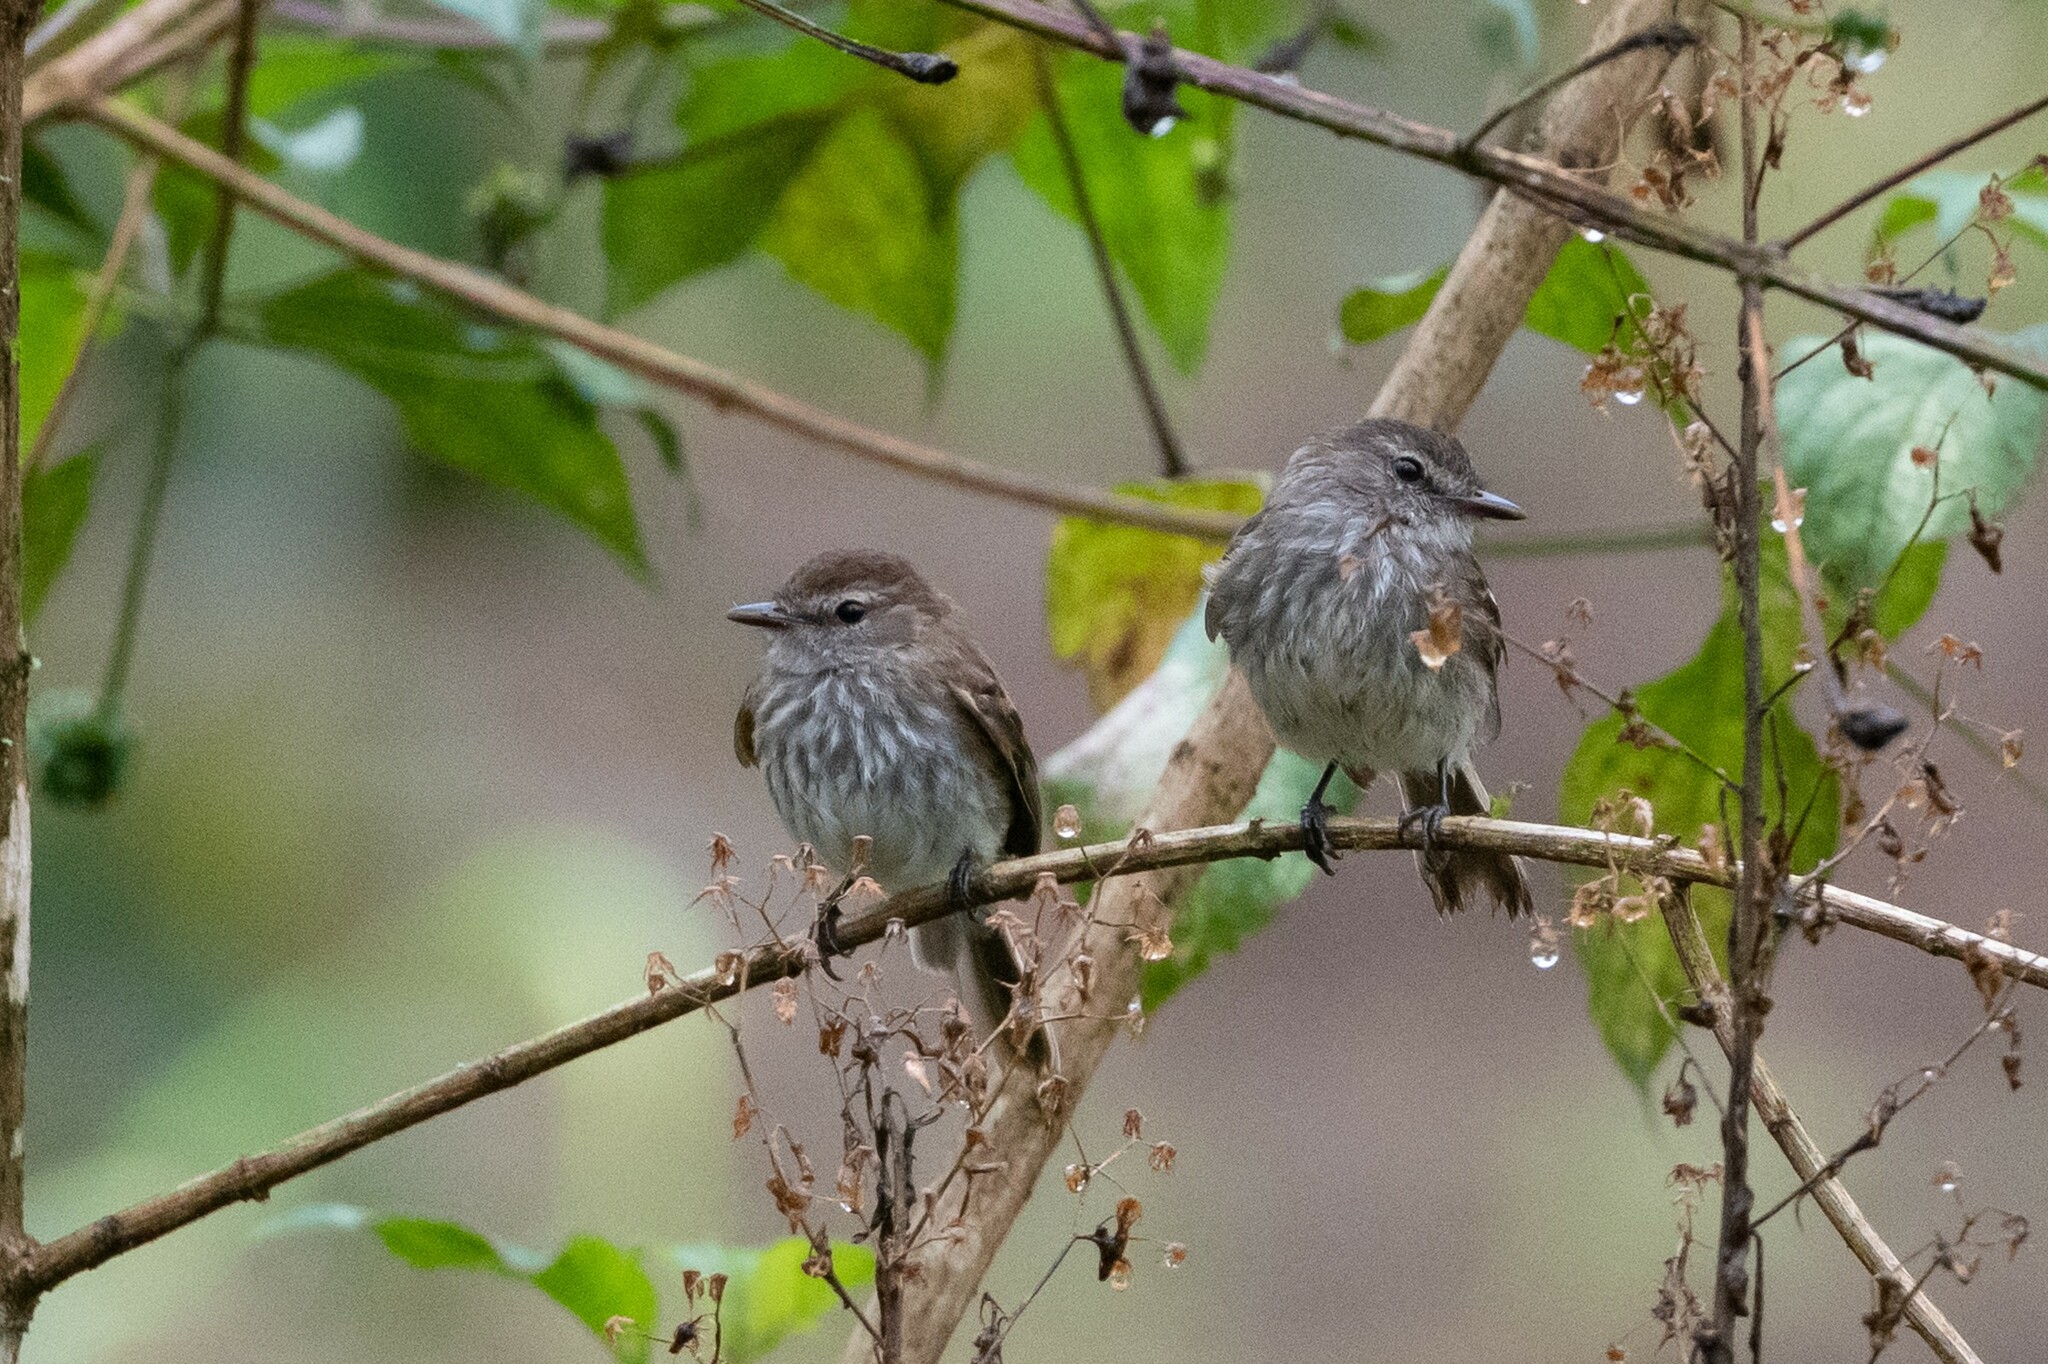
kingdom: Animalia
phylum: Chordata
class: Aves
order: Passeriformes
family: Tyrannidae
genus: Myiophobus
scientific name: Myiophobus fasciatus
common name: Bran-colored flycatcher
